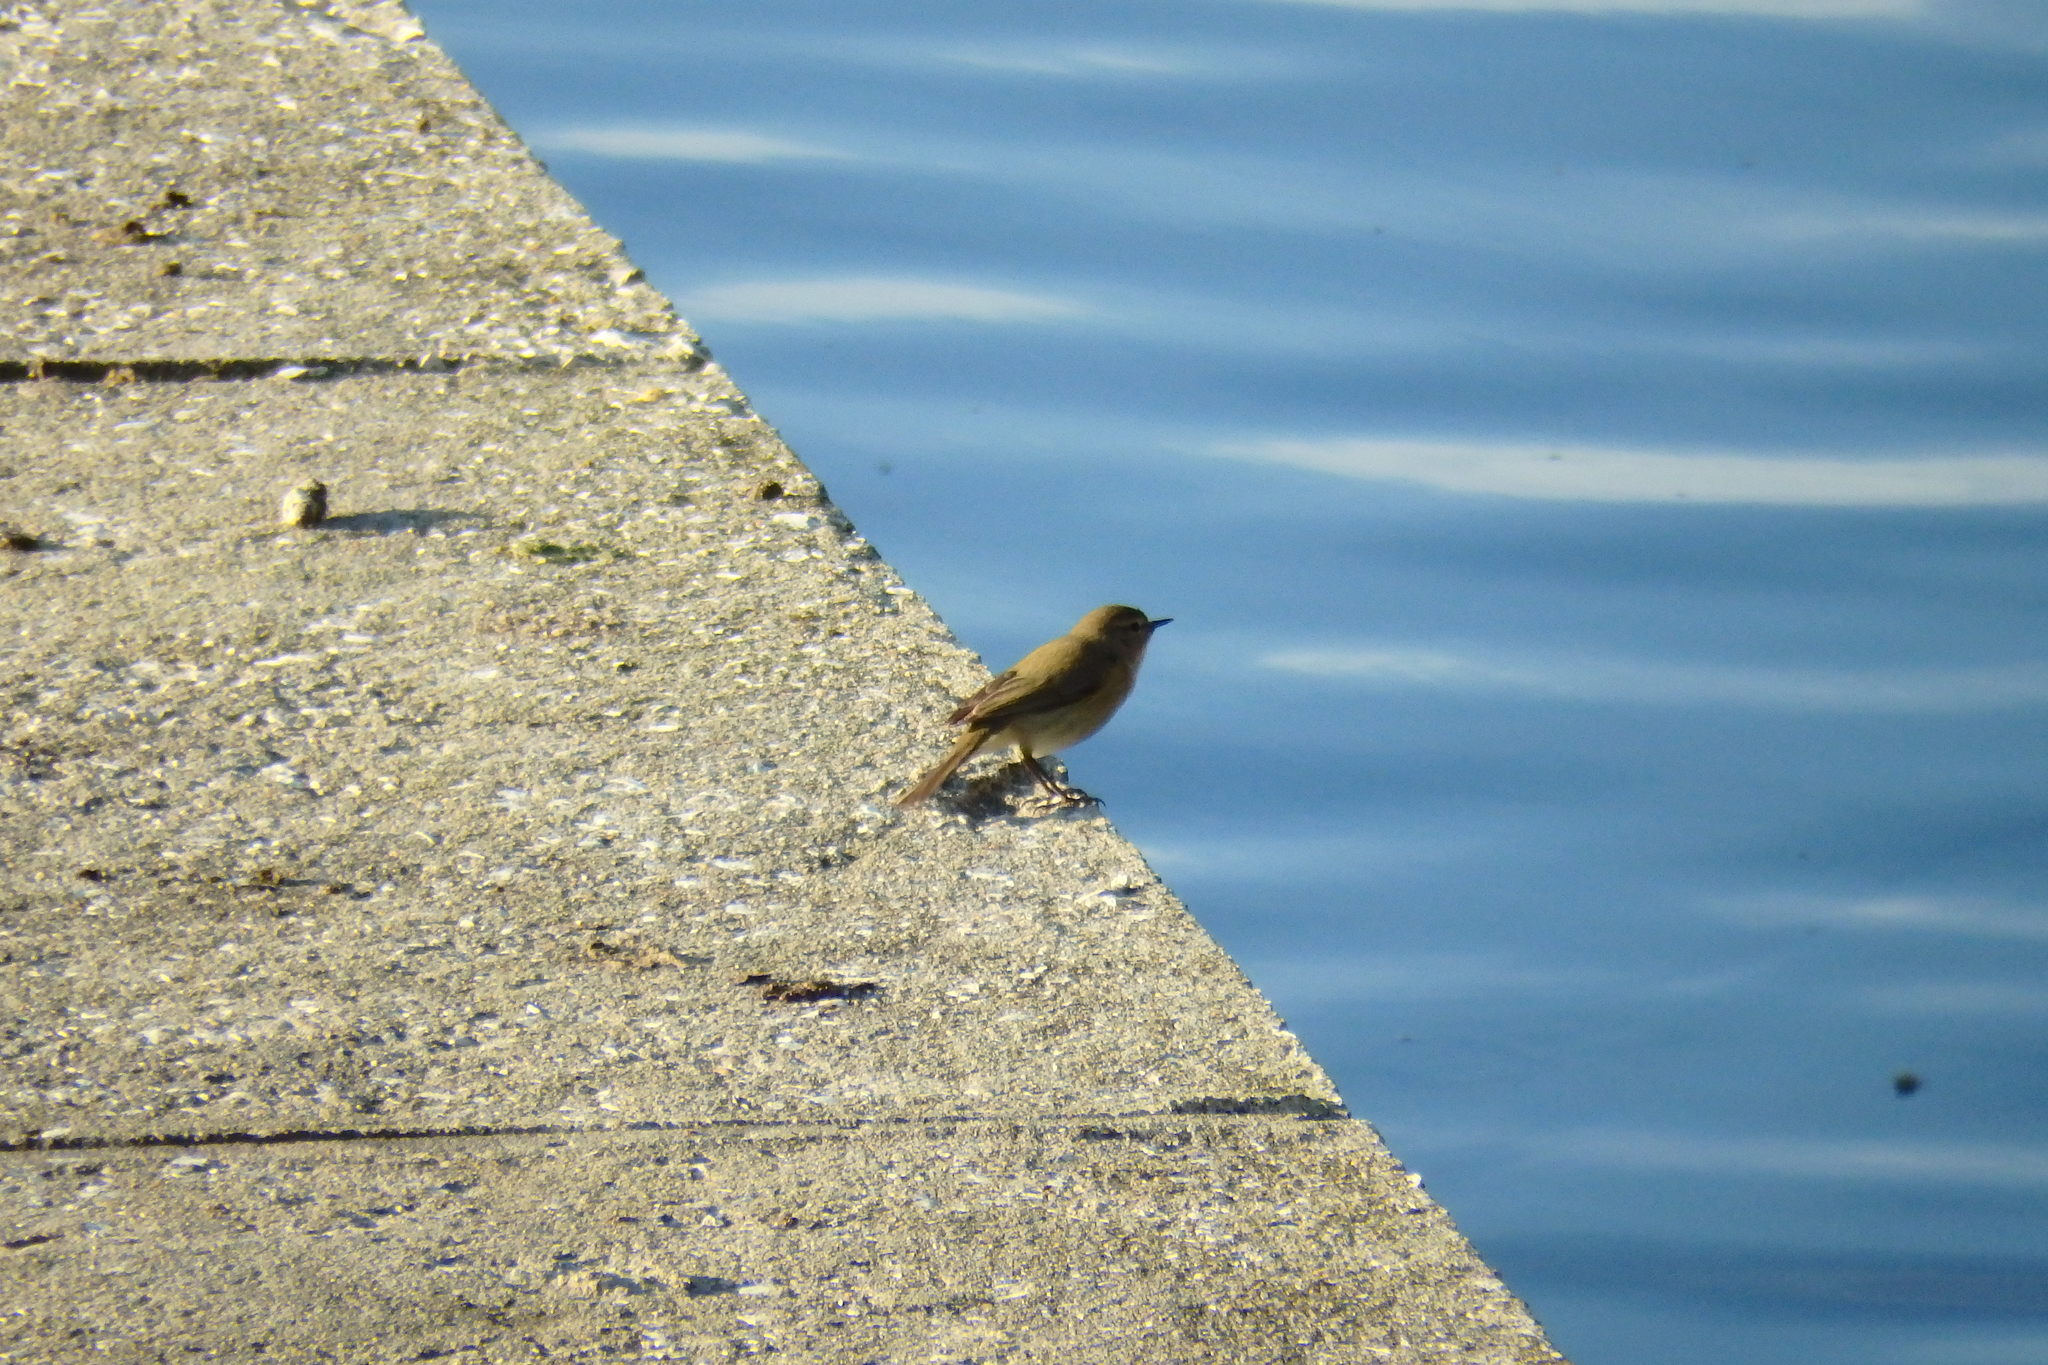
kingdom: Animalia
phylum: Chordata
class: Aves
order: Passeriformes
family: Phylloscopidae
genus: Phylloscopus
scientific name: Phylloscopus collybita
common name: Common chiffchaff
